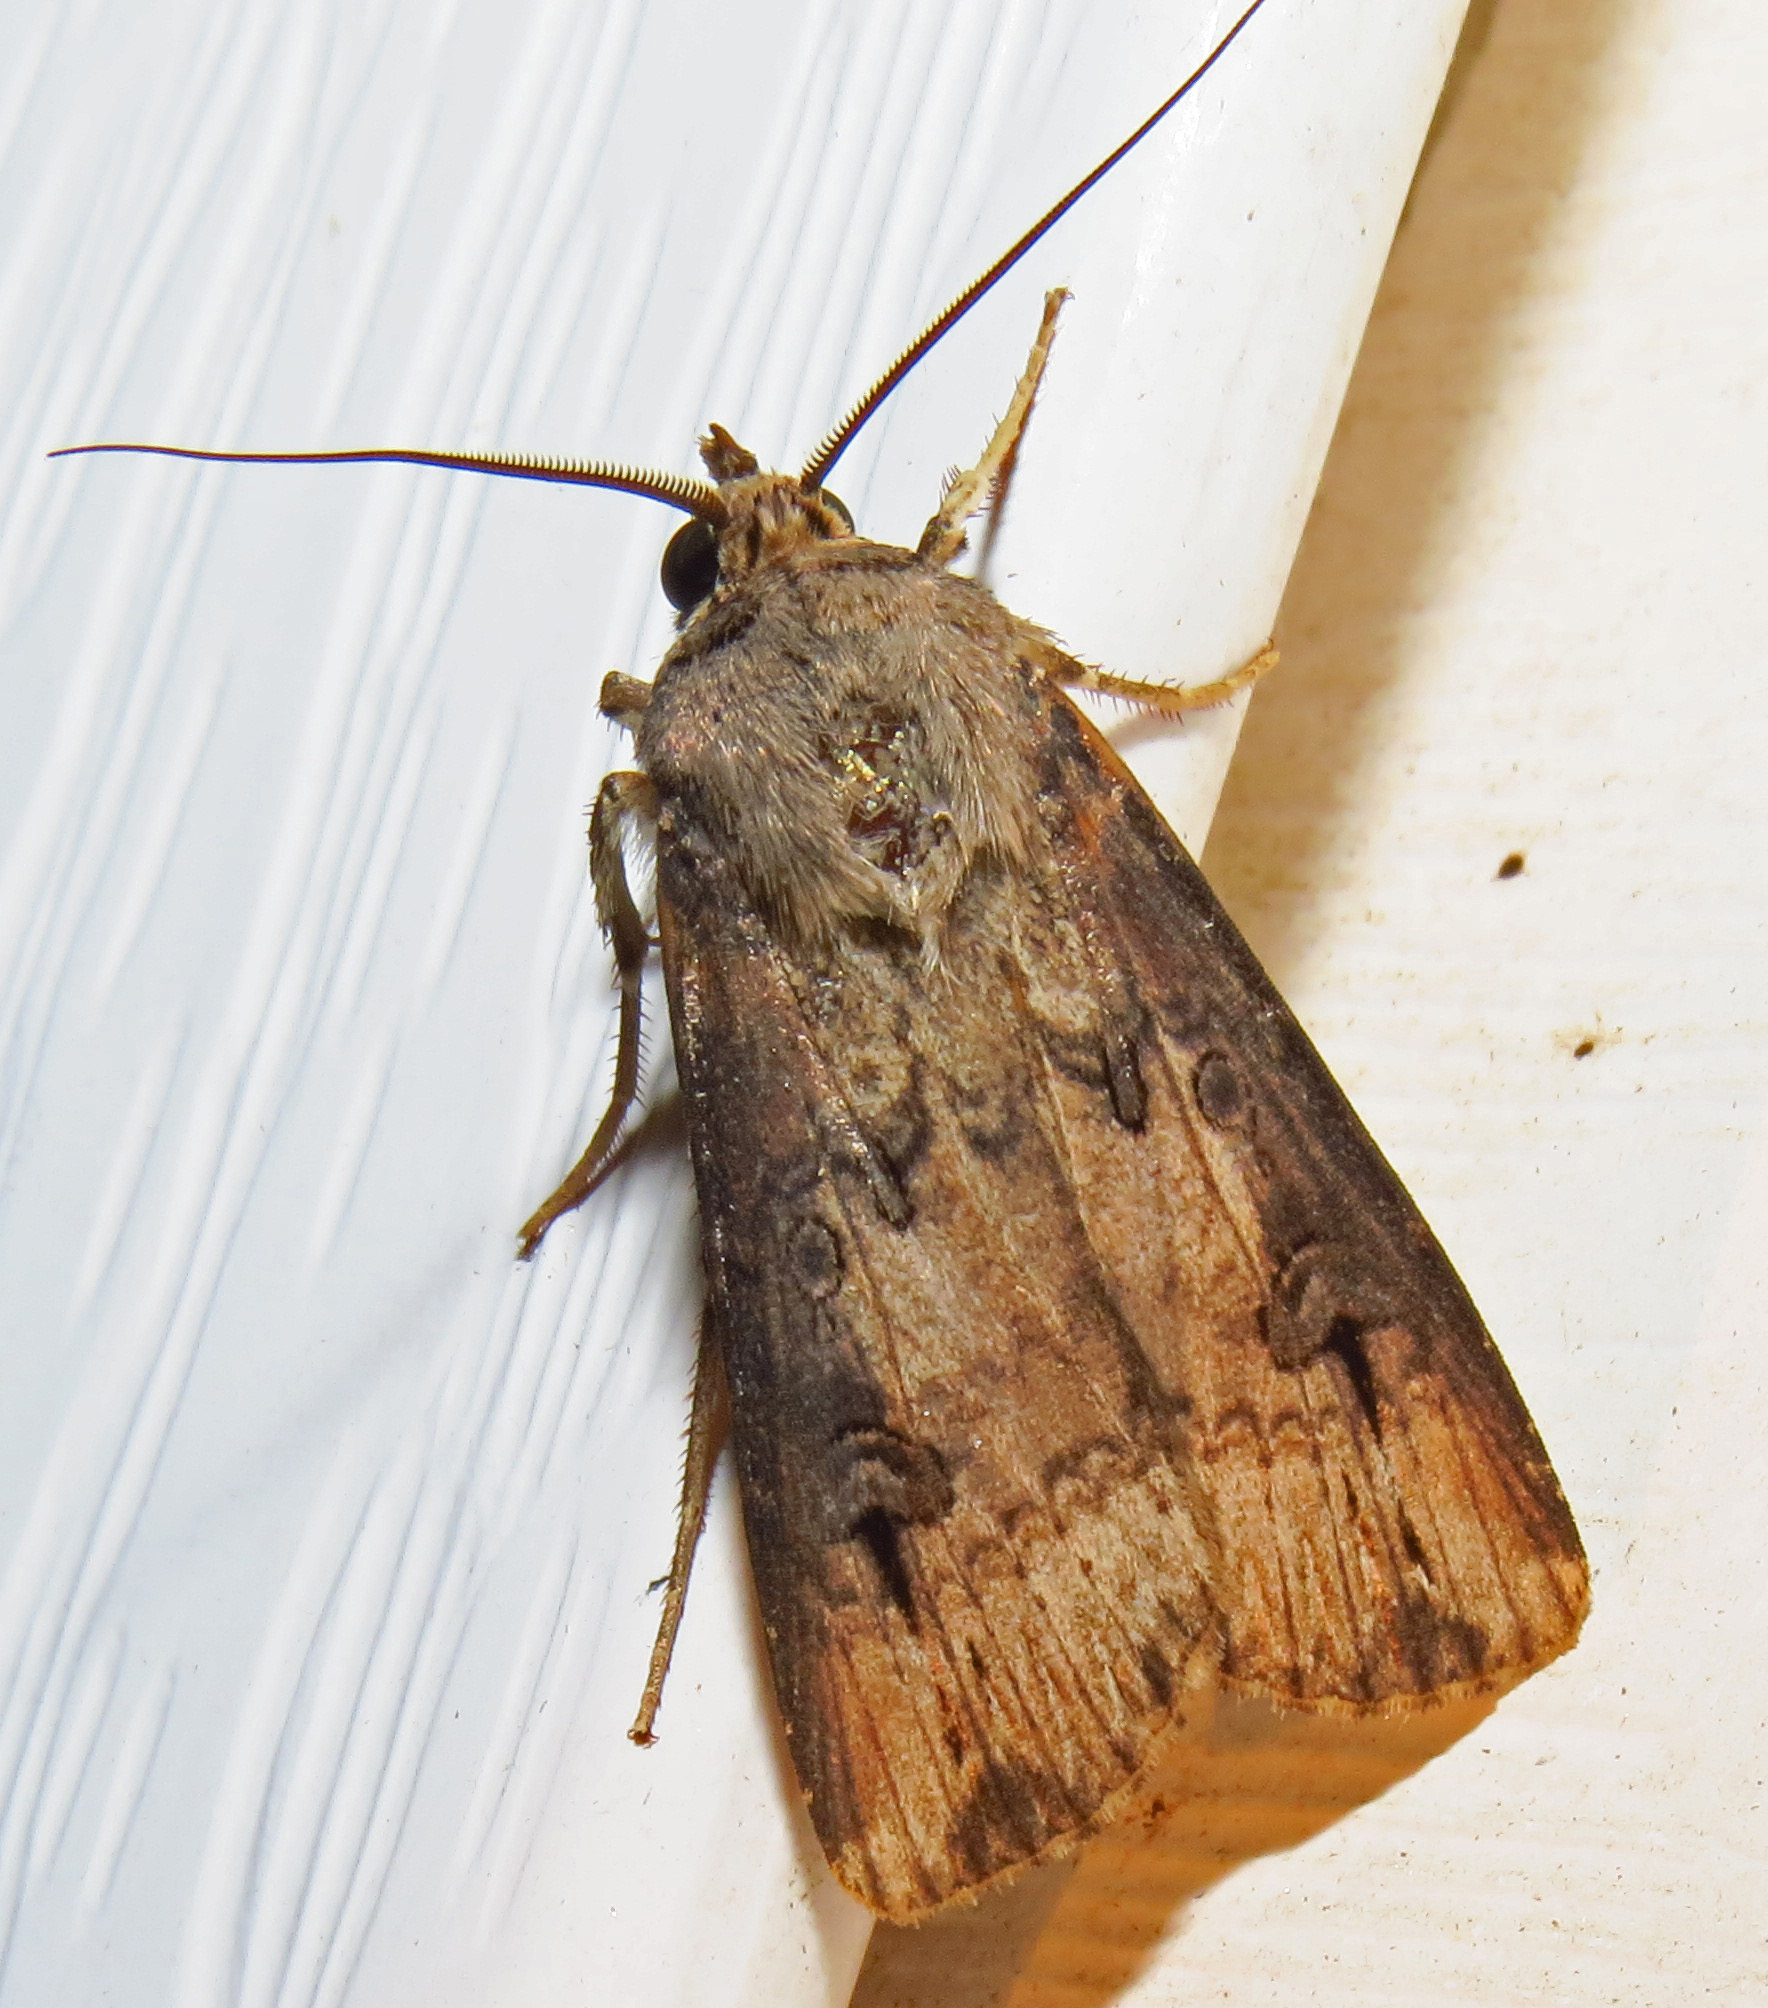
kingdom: Animalia
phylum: Arthropoda
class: Insecta
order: Lepidoptera
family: Noctuidae
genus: Agrotis
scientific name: Agrotis ipsilon
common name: Dark sword-grass
